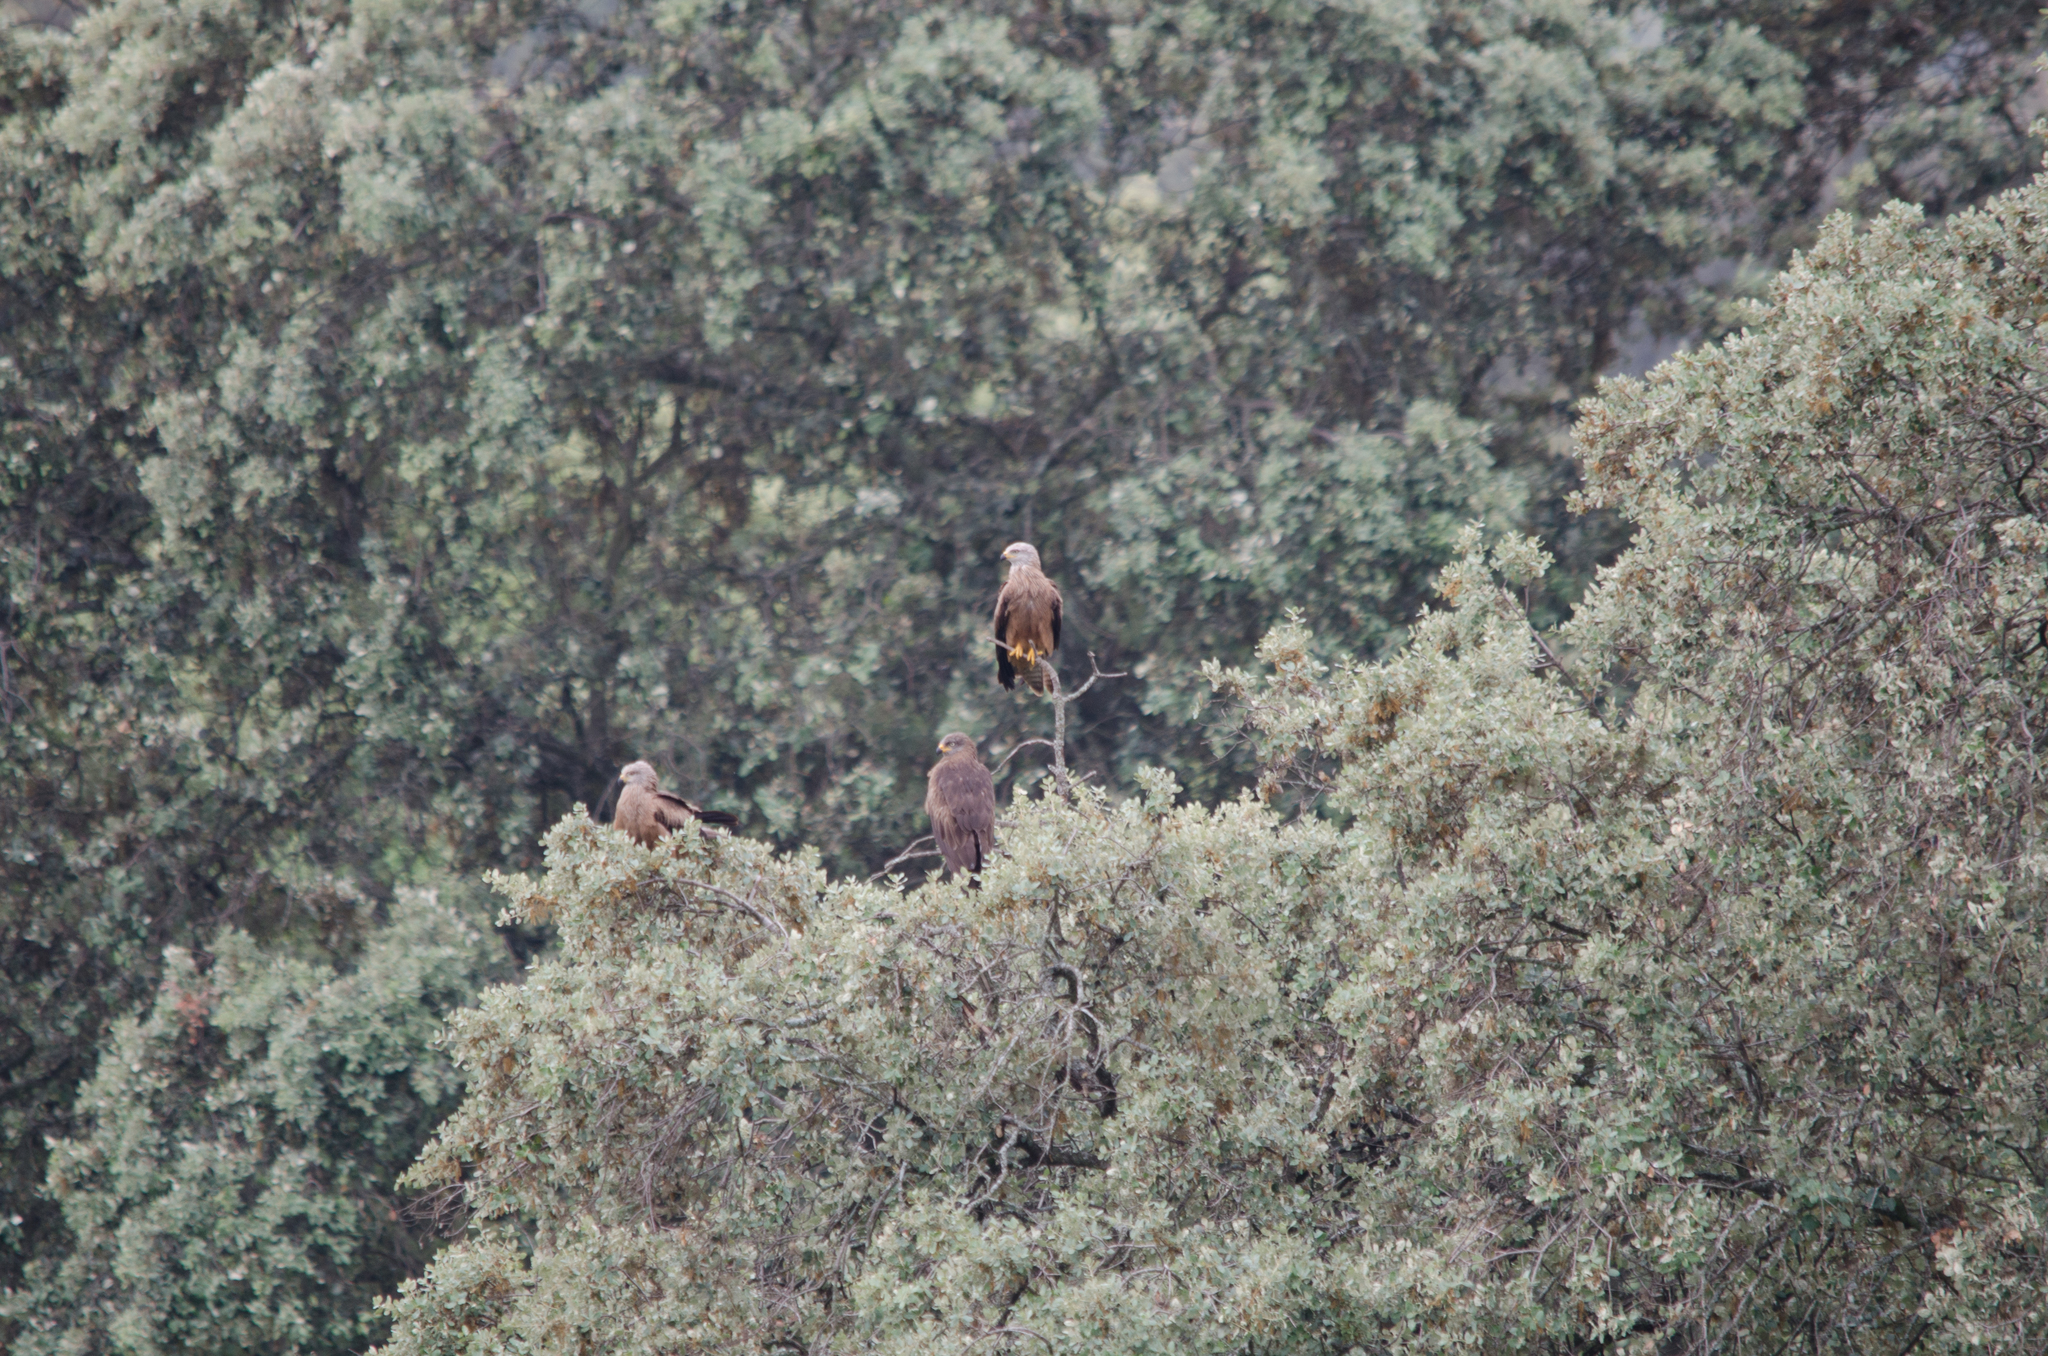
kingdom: Animalia
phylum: Chordata
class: Aves
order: Accipitriformes
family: Accipitridae
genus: Milvus
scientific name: Milvus migrans
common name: Black kite
